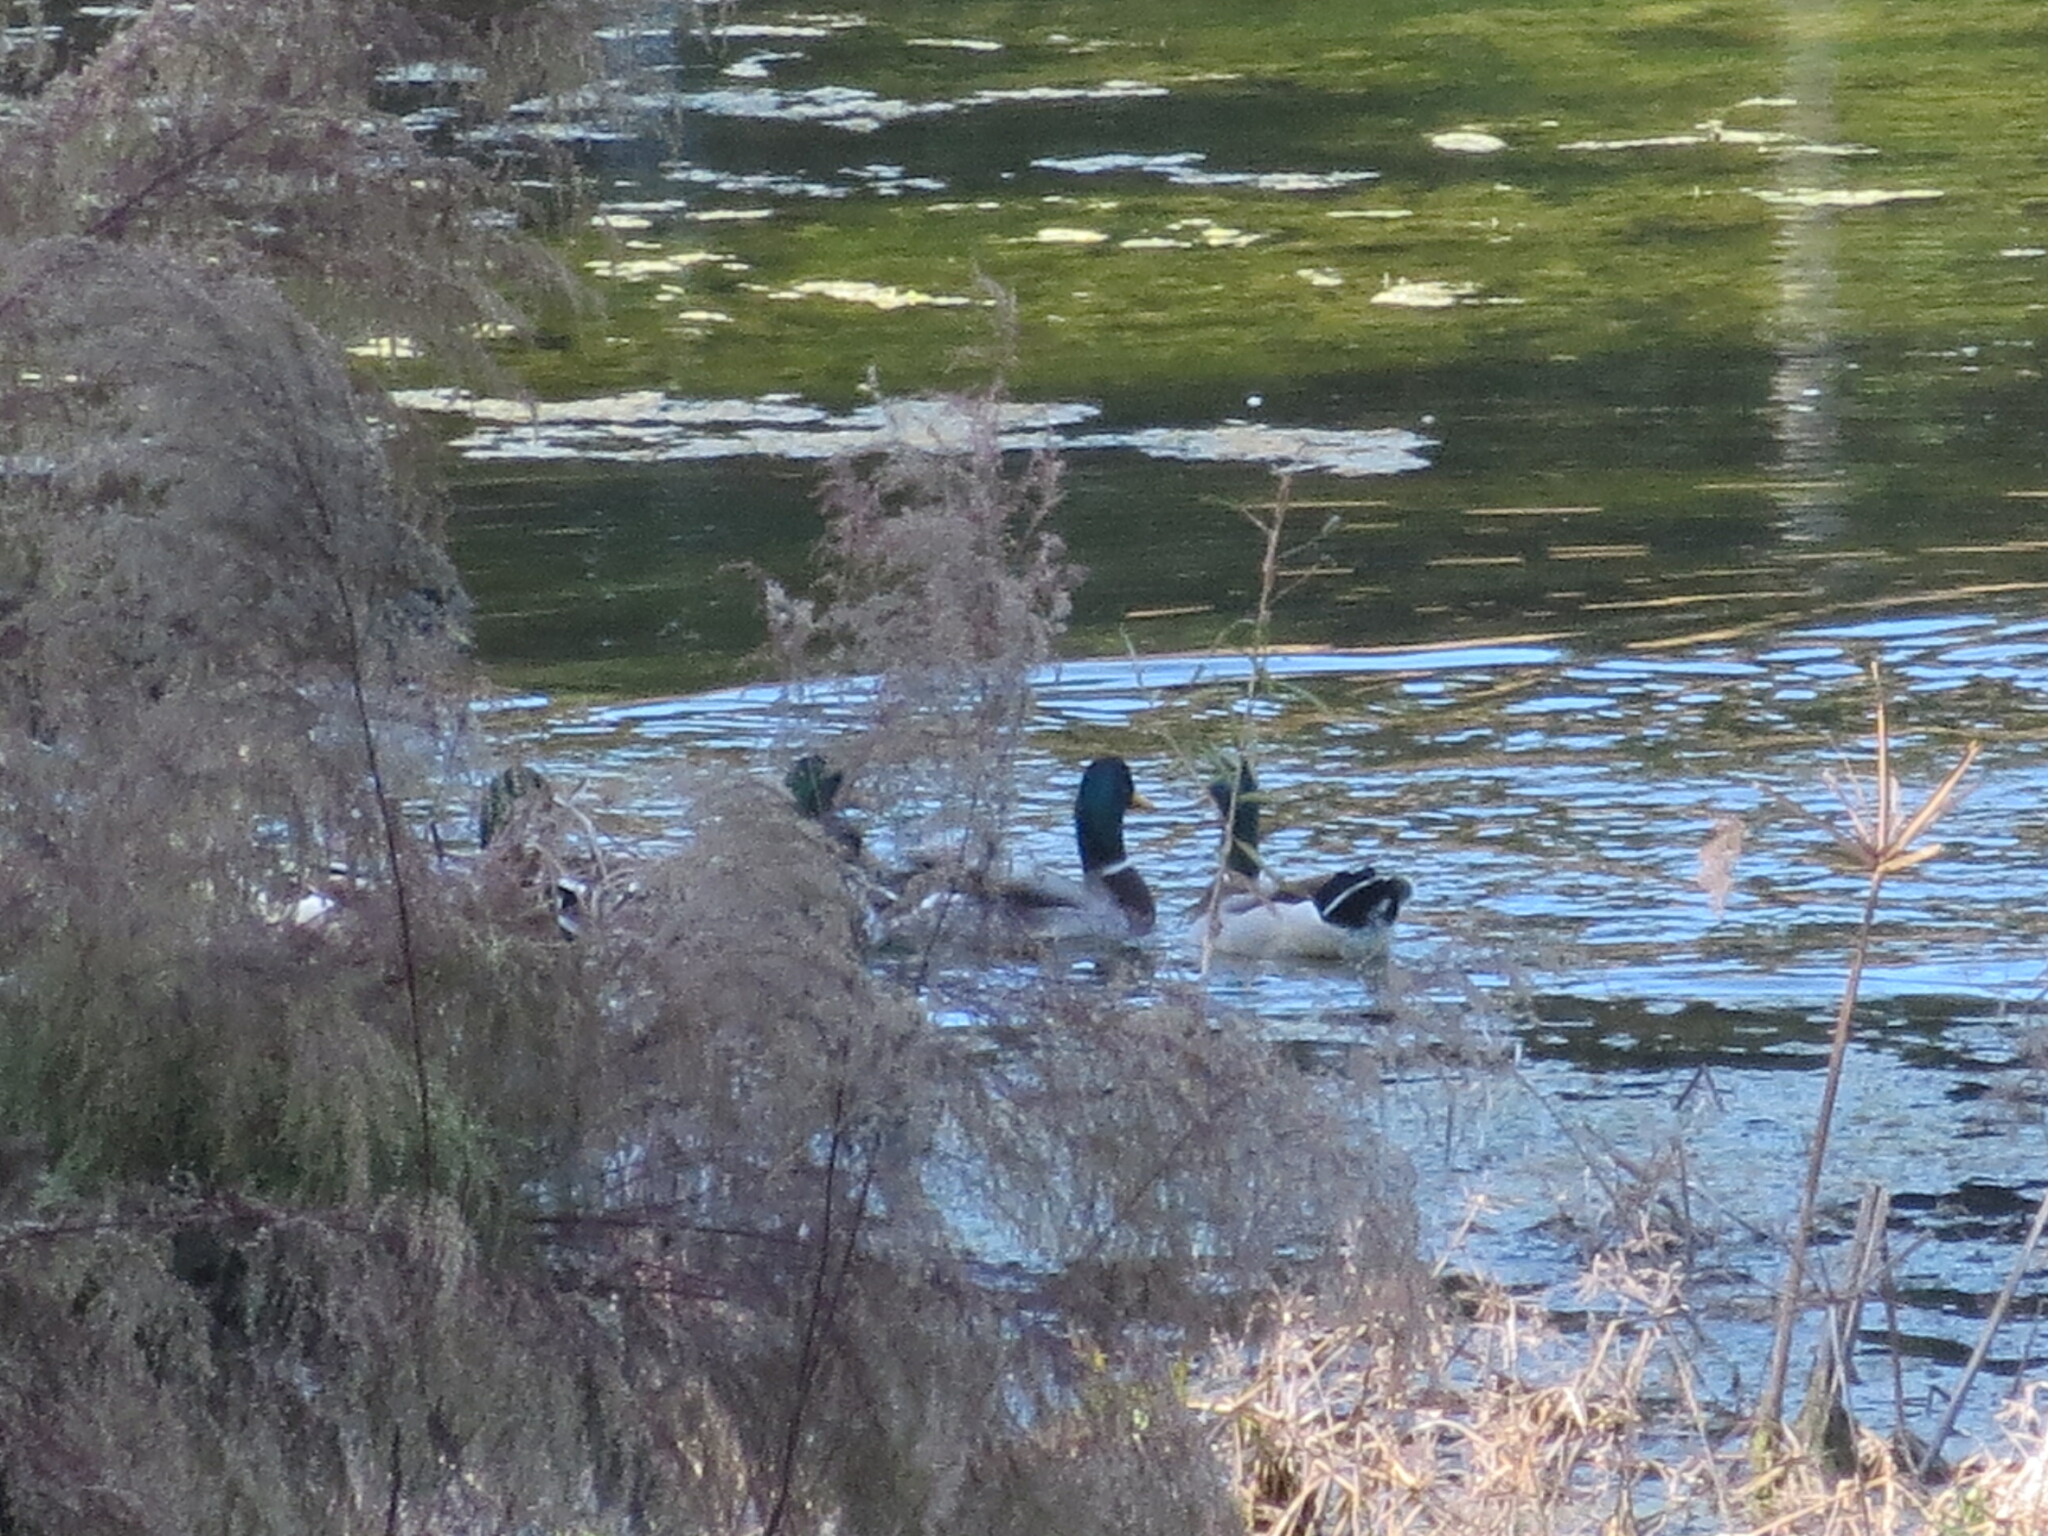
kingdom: Animalia
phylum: Chordata
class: Aves
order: Anseriformes
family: Anatidae
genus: Anas
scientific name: Anas platyrhynchos
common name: Mallard
